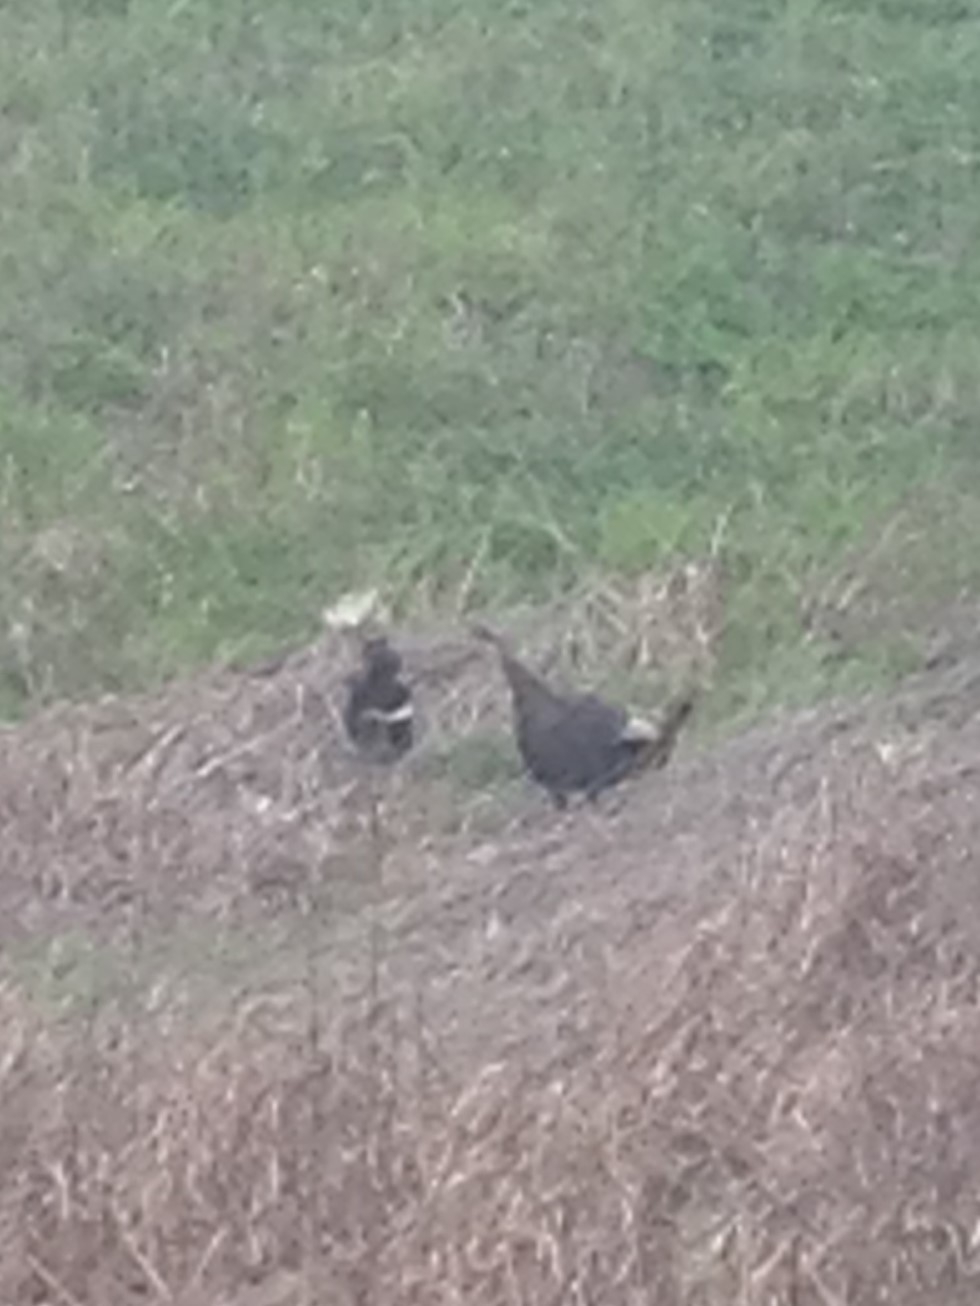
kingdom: Animalia
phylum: Chordata
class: Mammalia
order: Carnivora
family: Mephitidae
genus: Mephitis
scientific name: Mephitis mephitis
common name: Striped skunk
